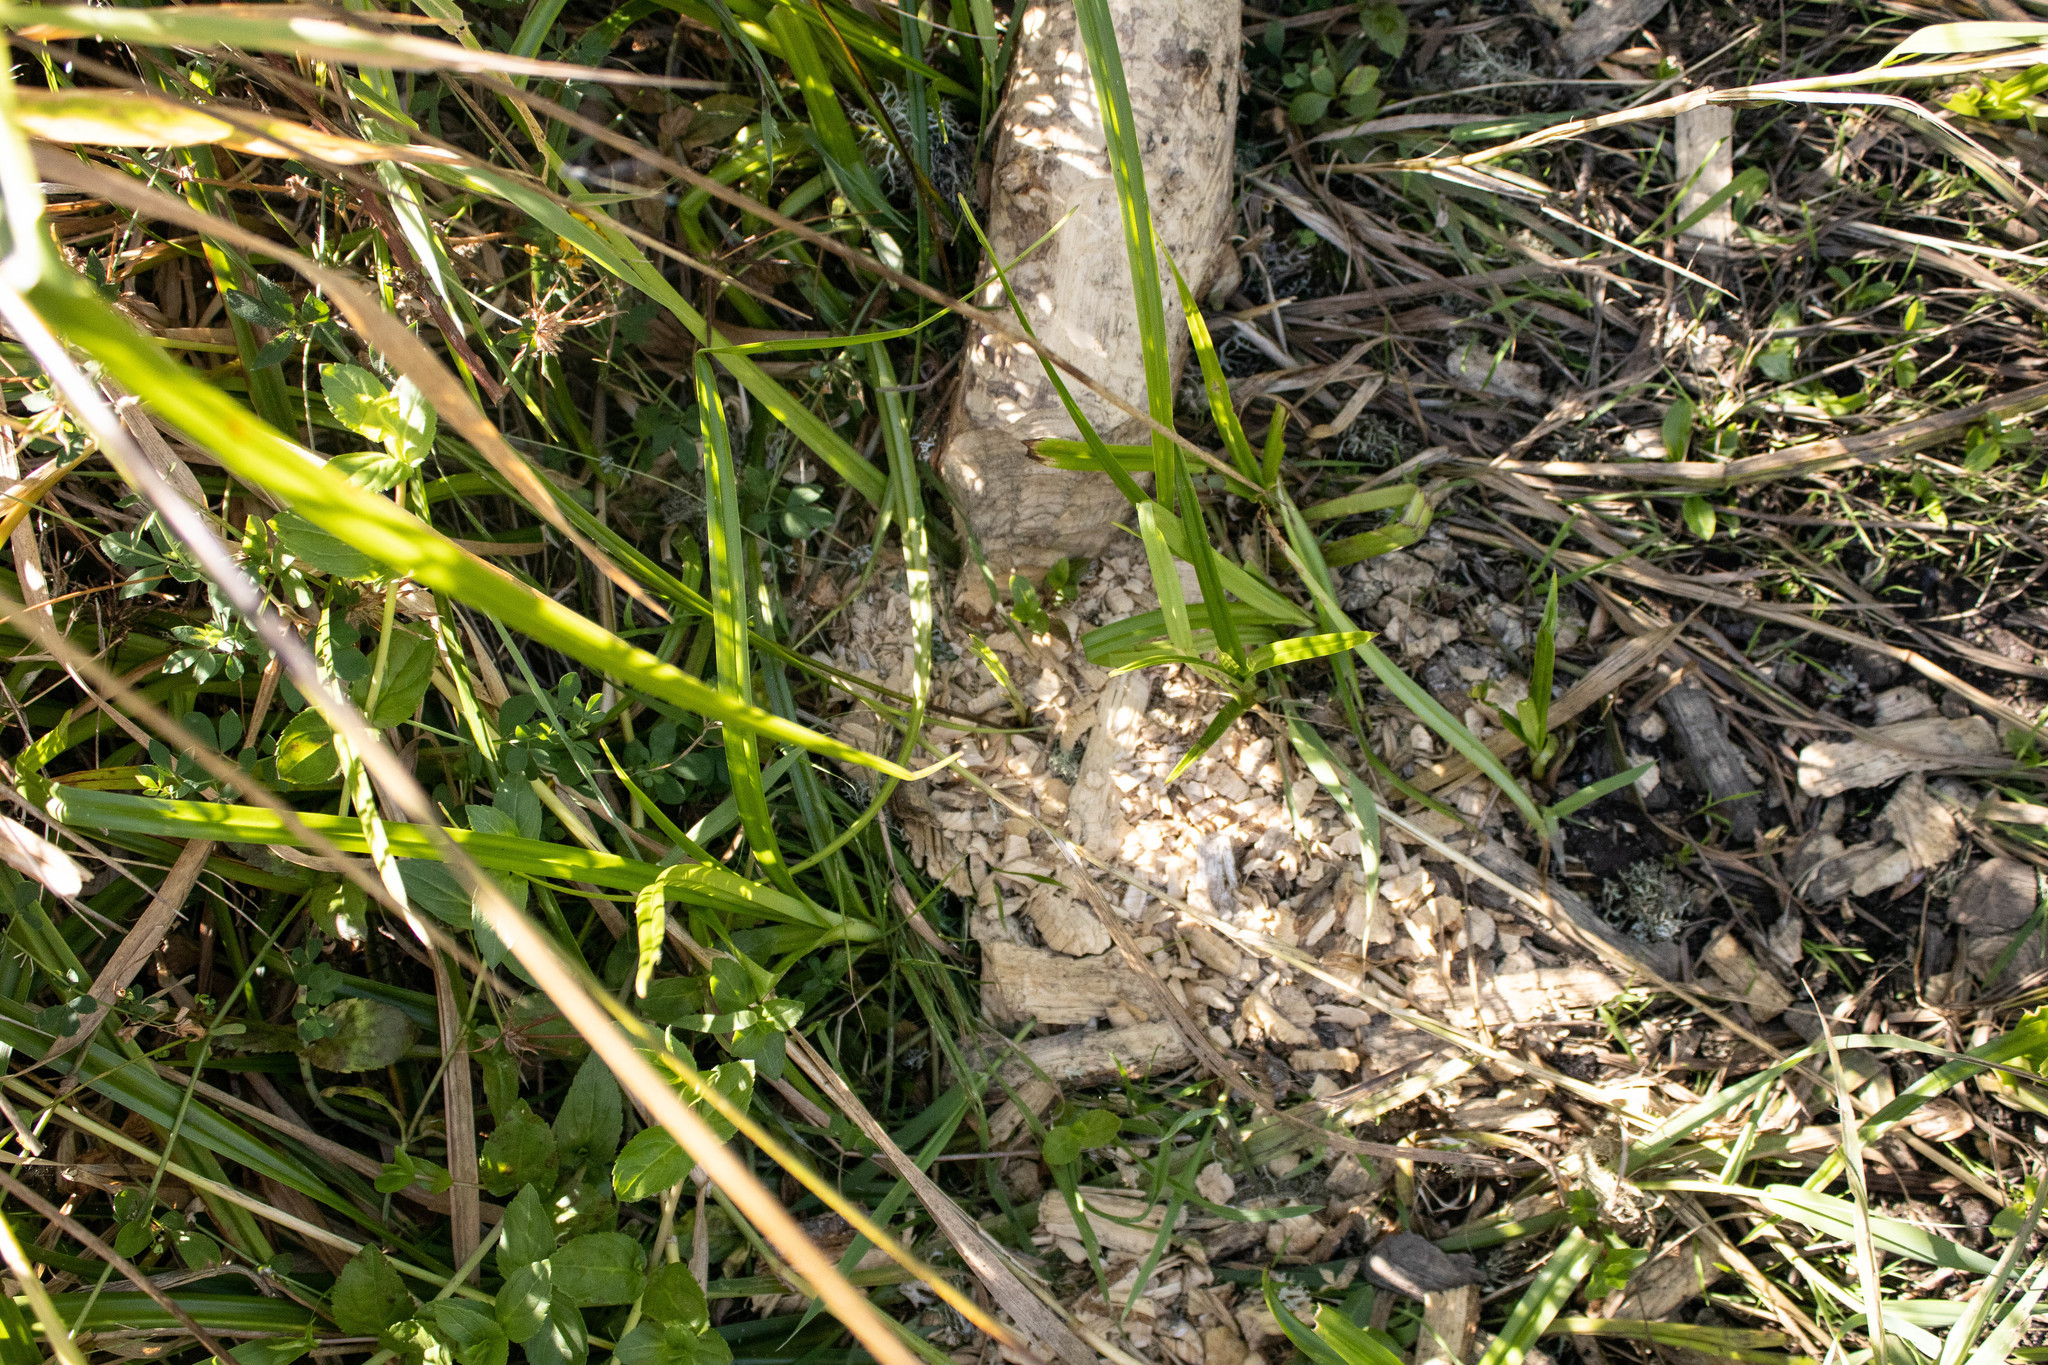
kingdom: Animalia
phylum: Chordata
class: Mammalia
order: Rodentia
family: Castoridae
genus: Castor
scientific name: Castor canadensis
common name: American beaver
